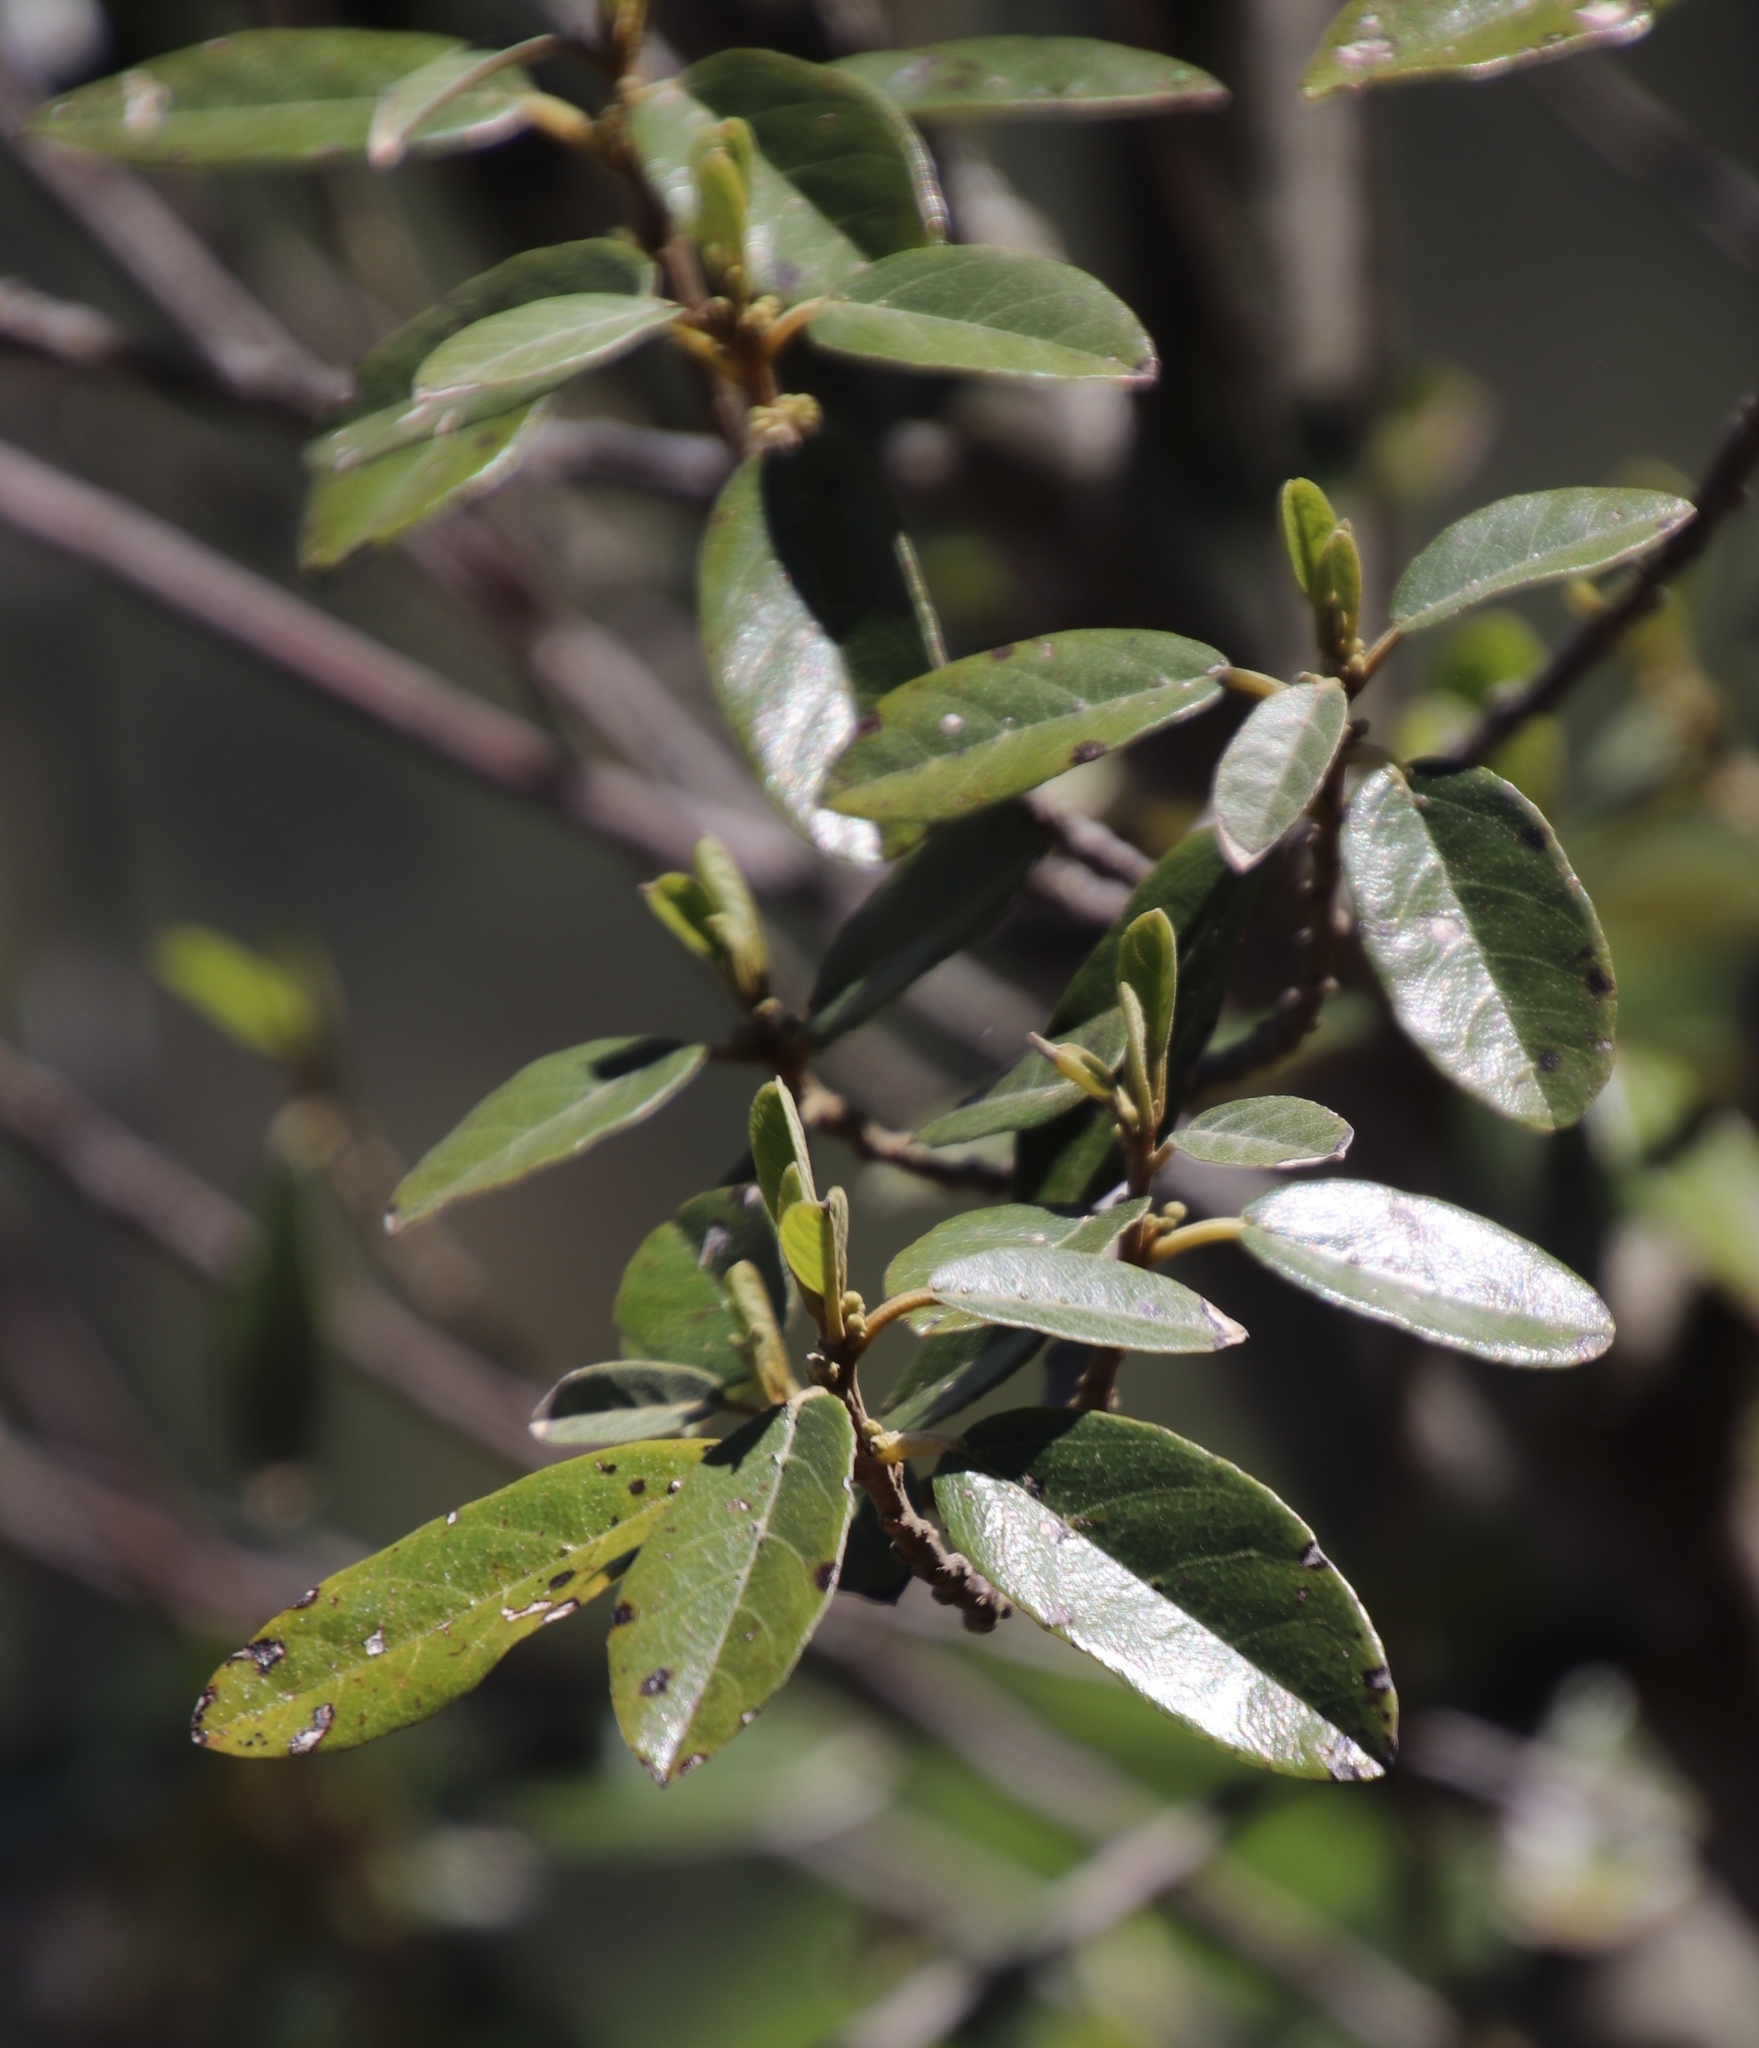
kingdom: Plantae
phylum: Tracheophyta
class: Magnoliopsida
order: Malpighiales
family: Achariaceae
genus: Kiggelaria
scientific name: Kiggelaria africana
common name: Wild peach
